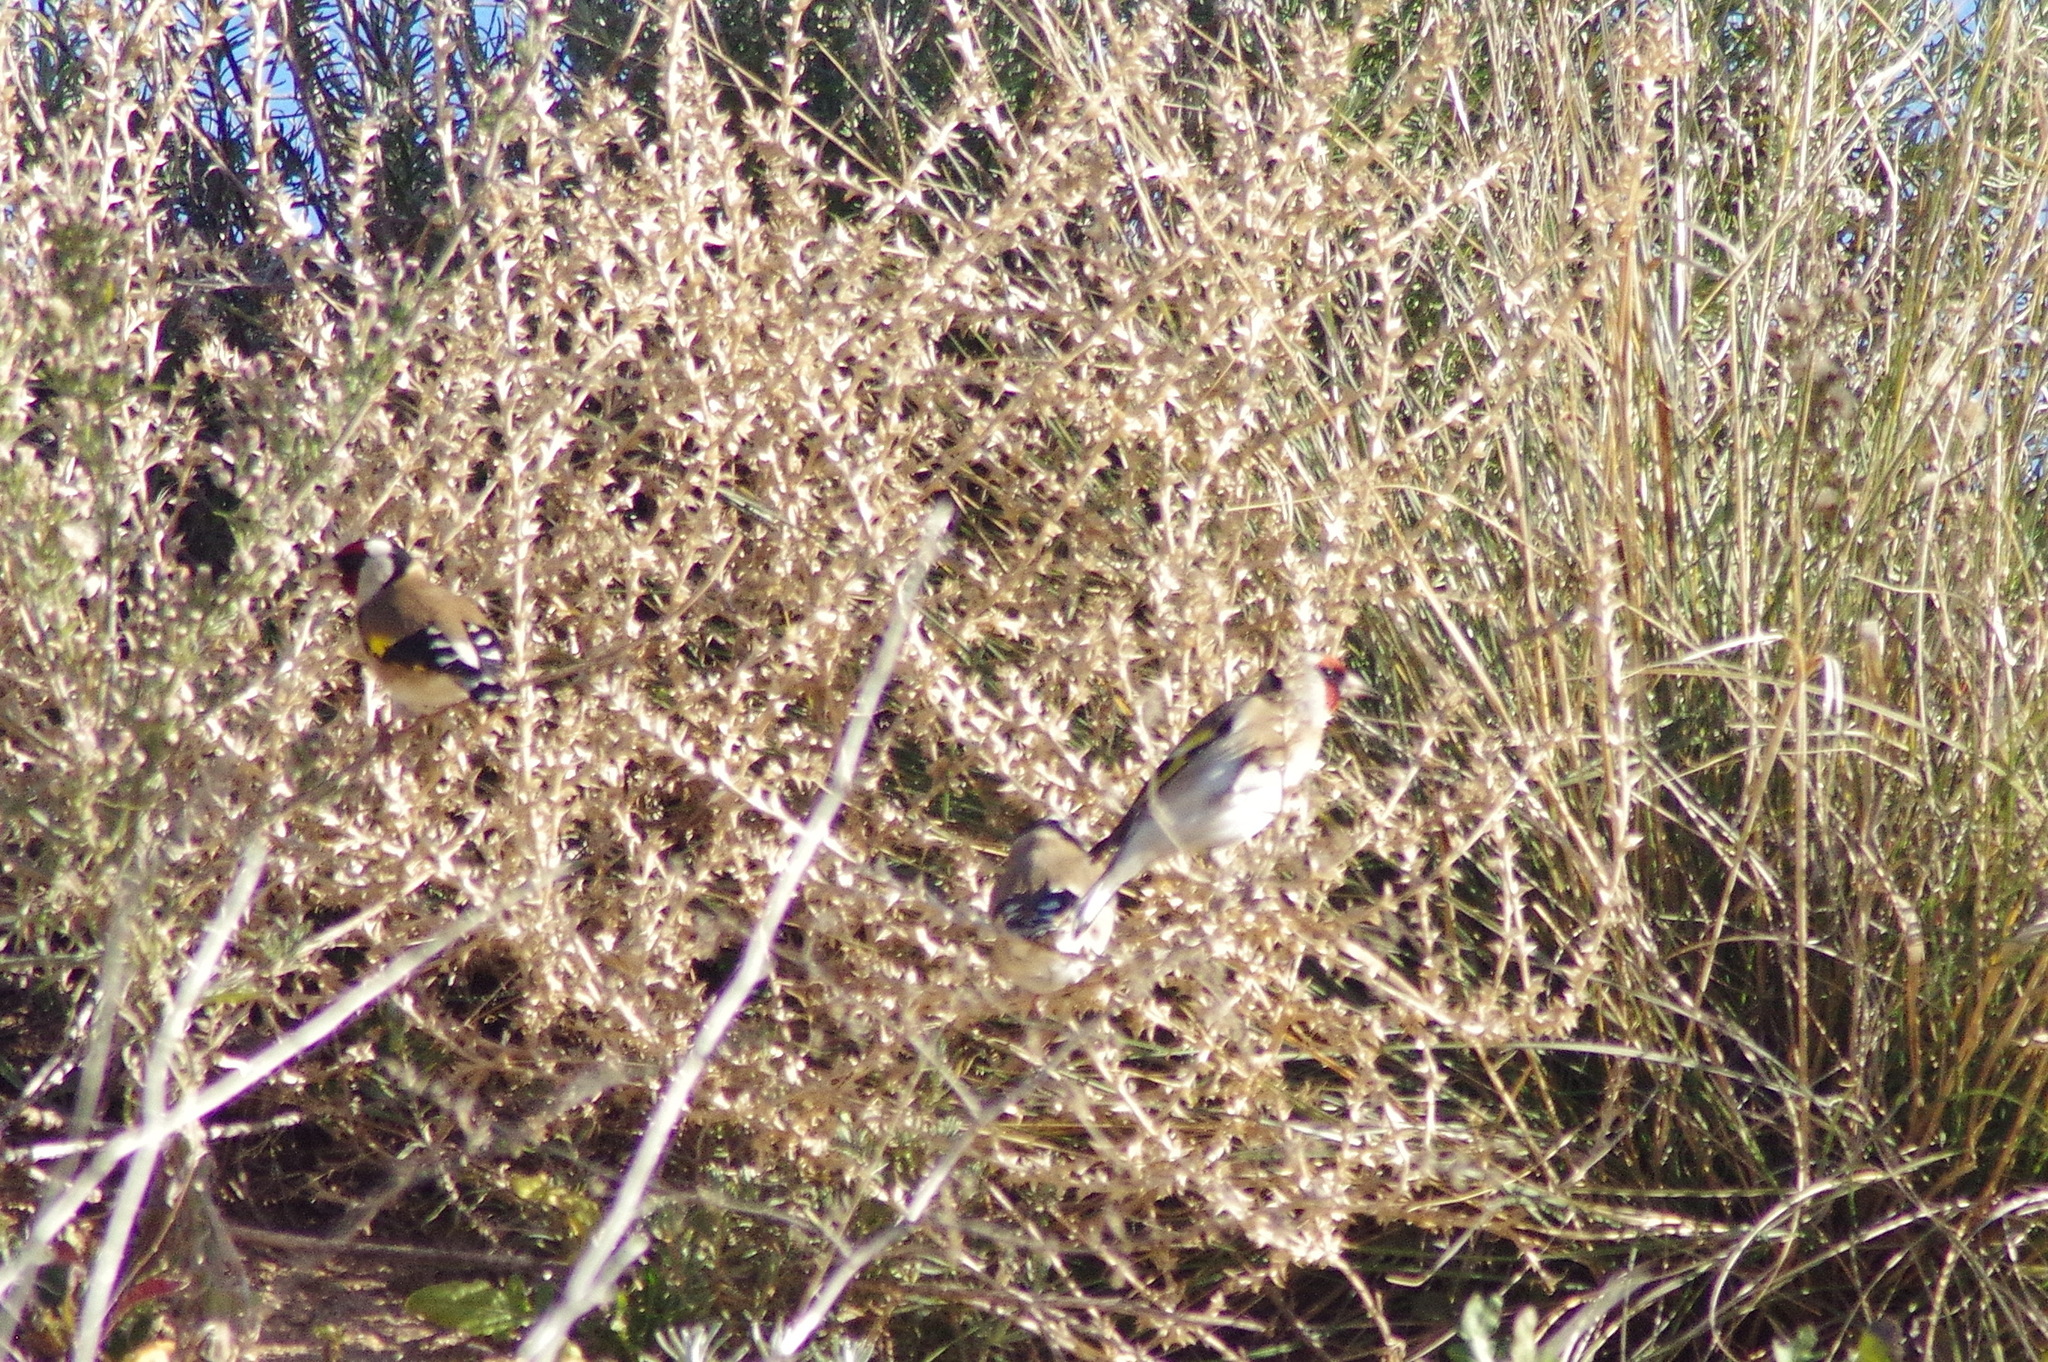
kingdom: Animalia
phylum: Chordata
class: Aves
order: Passeriformes
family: Fringillidae
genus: Carduelis
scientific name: Carduelis carduelis
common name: European goldfinch
